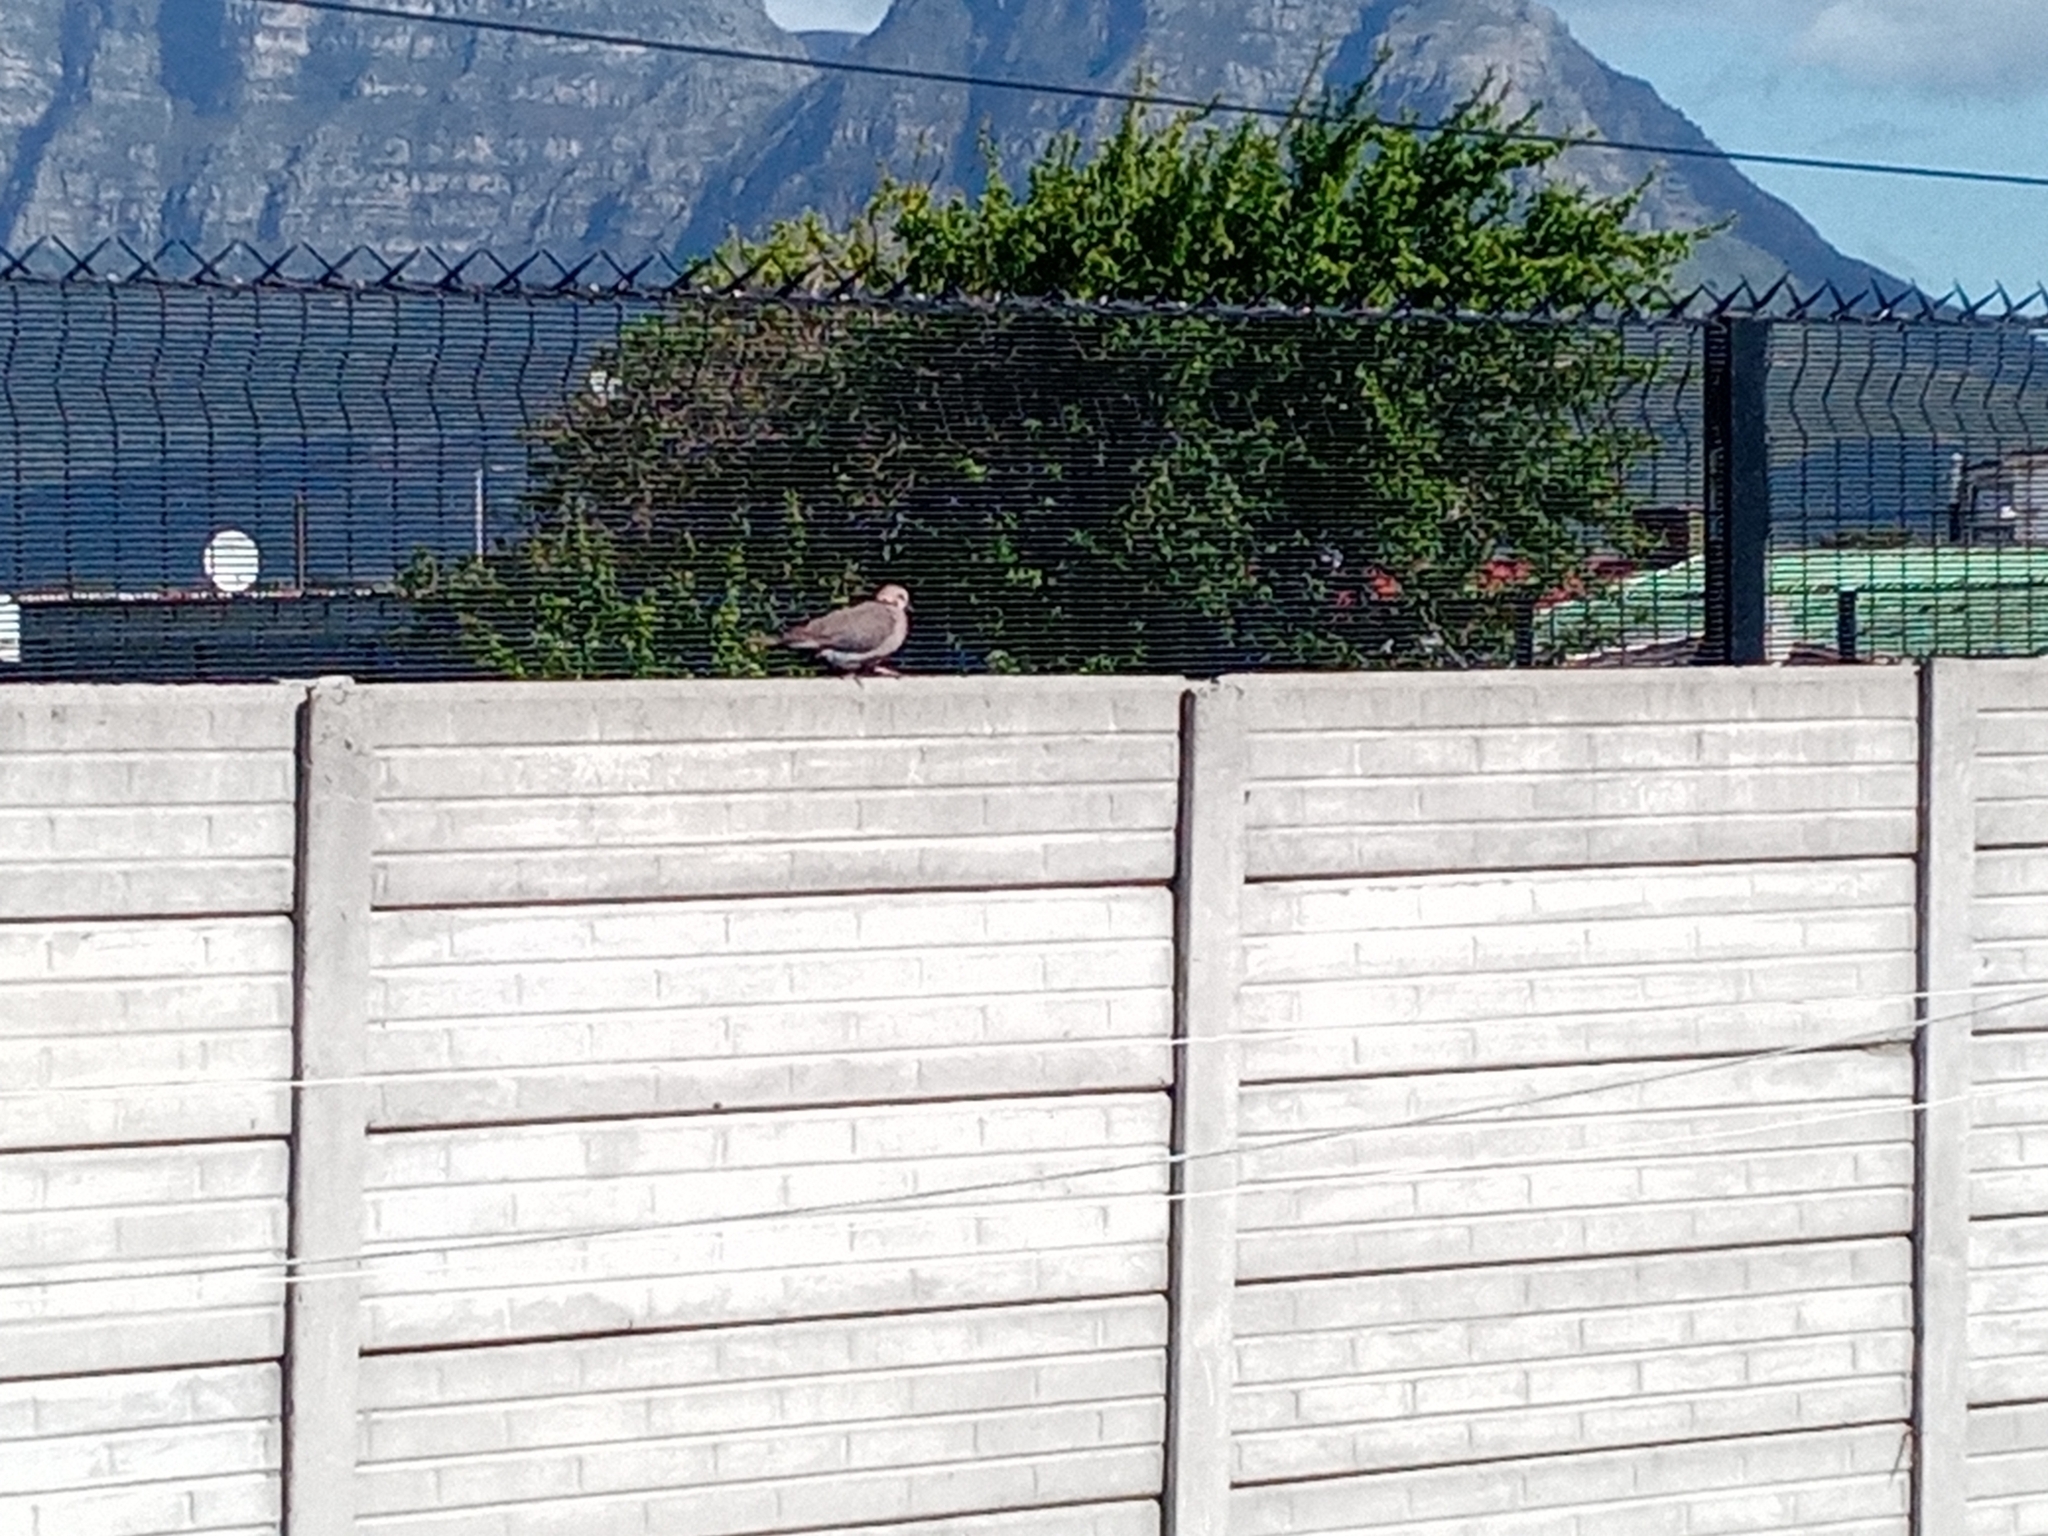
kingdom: Animalia
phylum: Chordata
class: Aves
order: Columbiformes
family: Columbidae
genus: Streptopelia
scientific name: Streptopelia semitorquata
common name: Red-eyed dove
